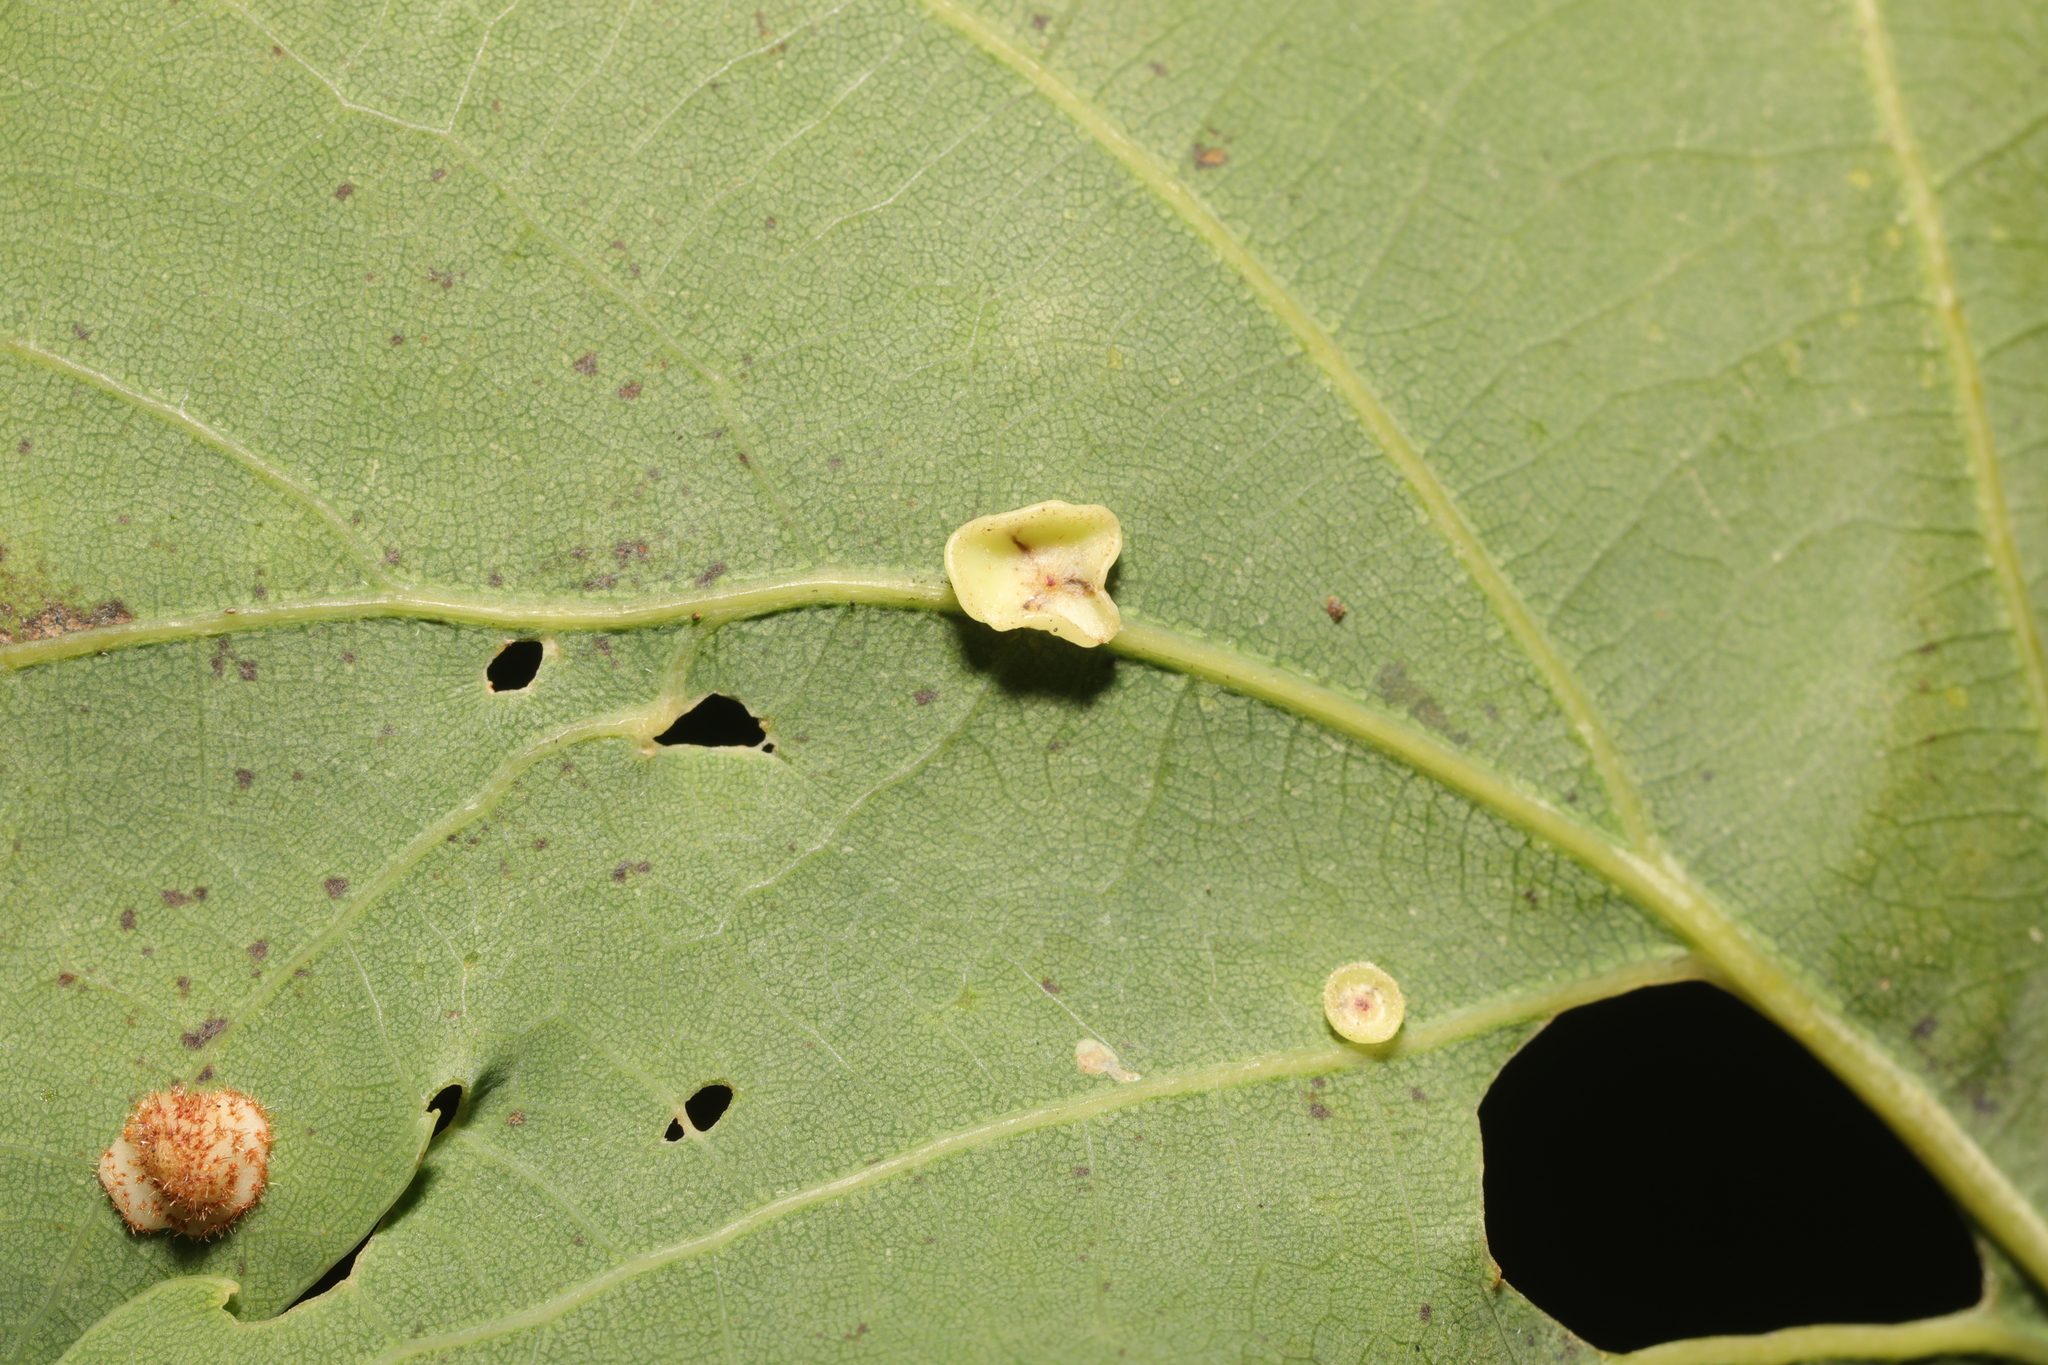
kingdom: Animalia
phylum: Arthropoda
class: Insecta
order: Hymenoptera
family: Cynipidae
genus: Neuroterus
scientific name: Neuroterus albipes
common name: Smooth spangle gall
